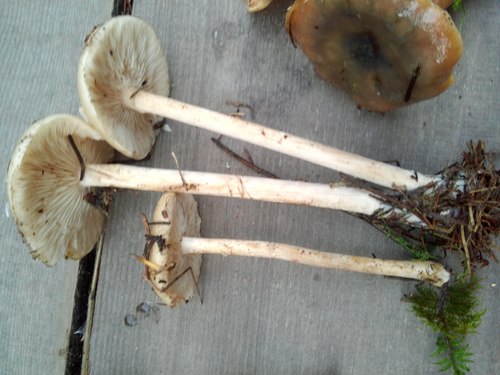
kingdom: Fungi
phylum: Basidiomycota
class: Agaricomycetes
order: Agaricales
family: Tricholomataceae
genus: Melanoleuca
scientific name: Melanoleuca
